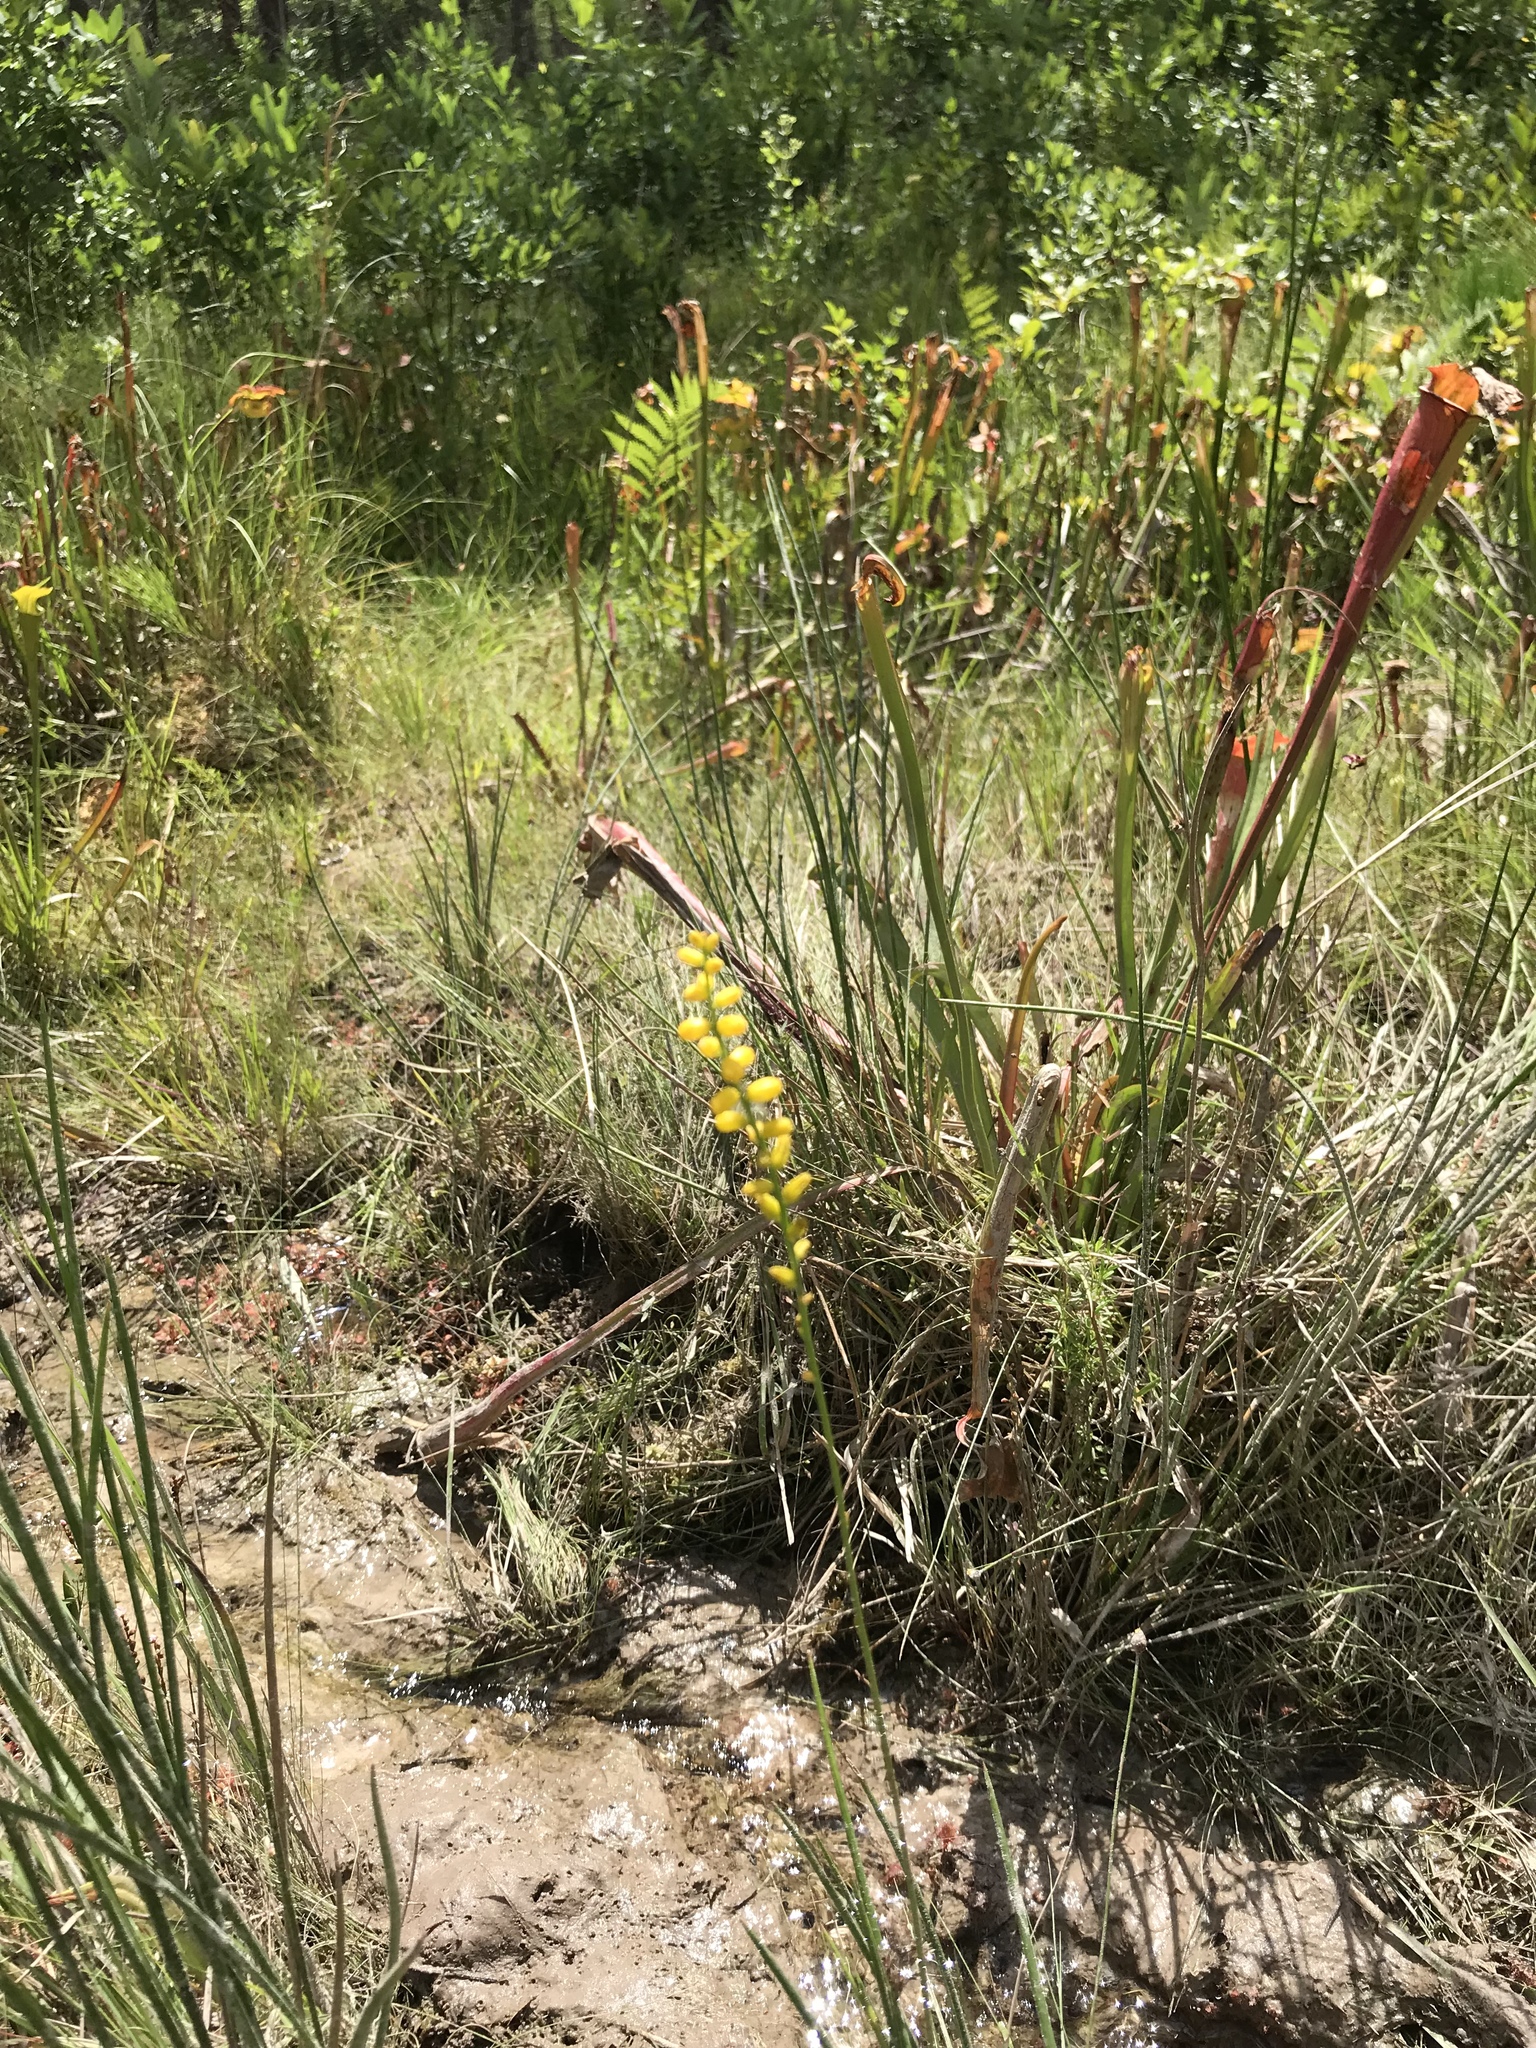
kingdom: Plantae
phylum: Tracheophyta
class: Liliopsida
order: Dioscoreales
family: Nartheciaceae
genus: Aletris
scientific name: Aletris aurea
